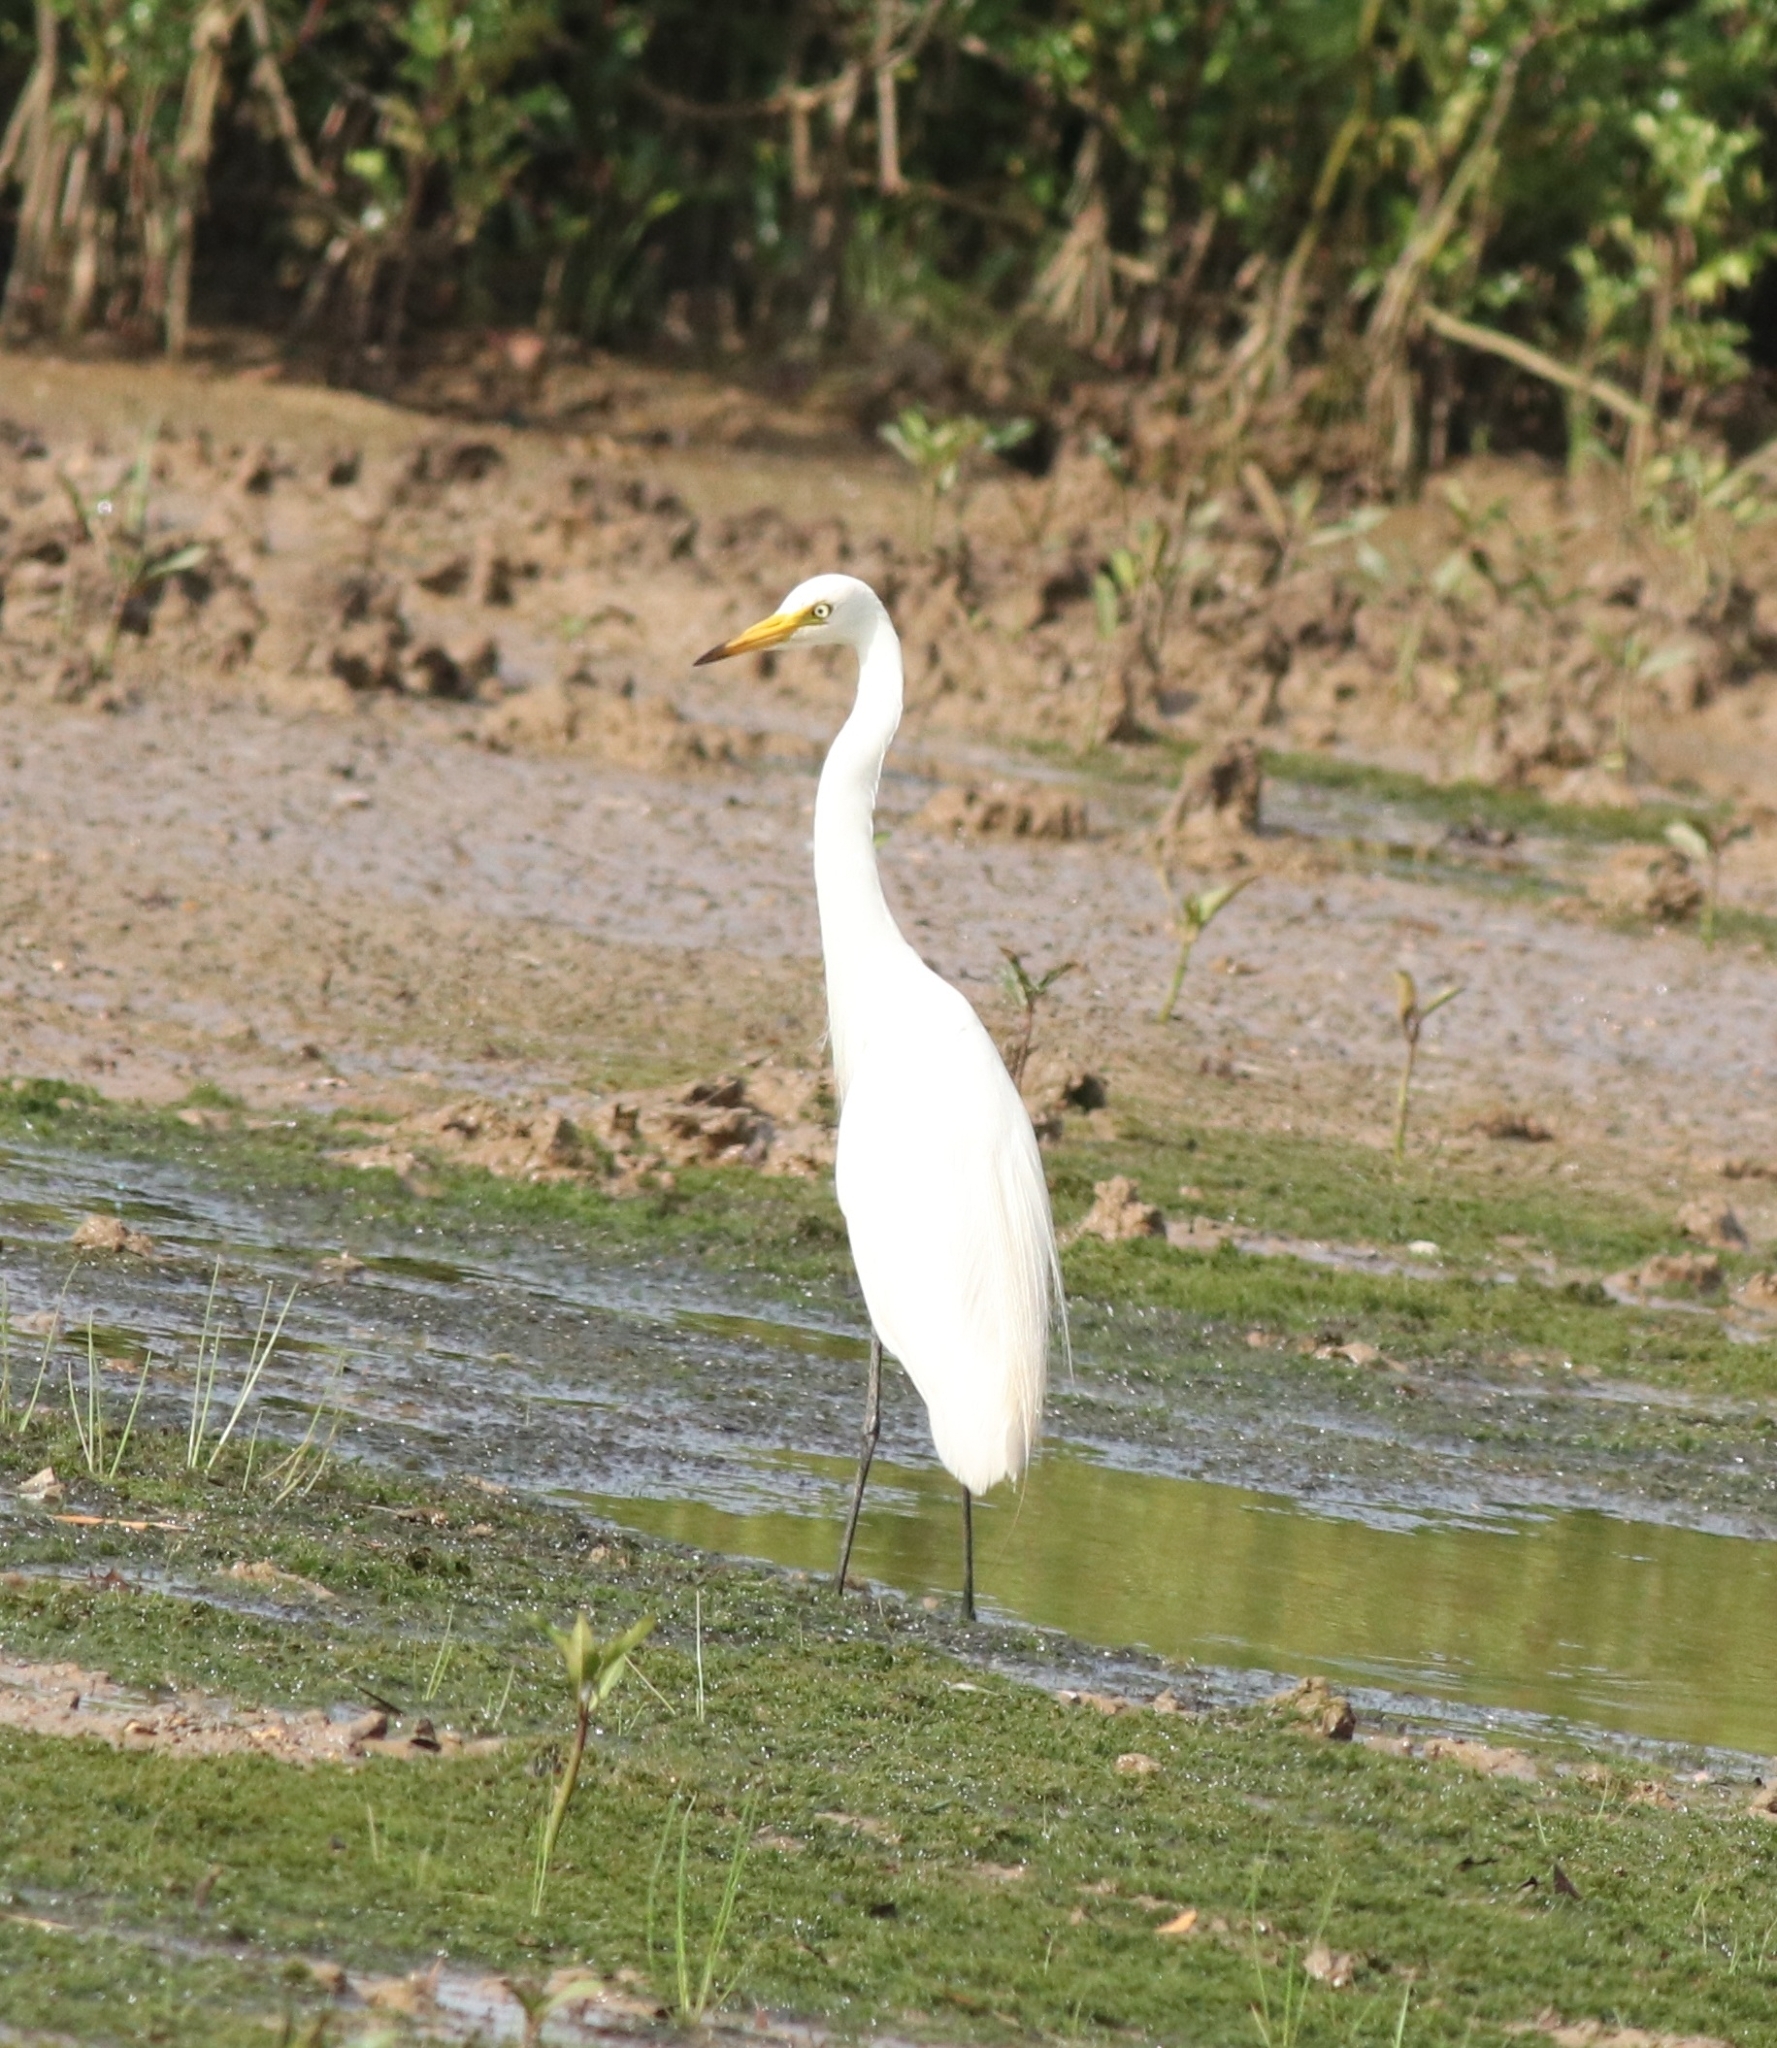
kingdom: Animalia
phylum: Chordata
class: Aves
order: Pelecaniformes
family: Ardeidae
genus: Egretta
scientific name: Egretta intermedia
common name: Intermediate egret
